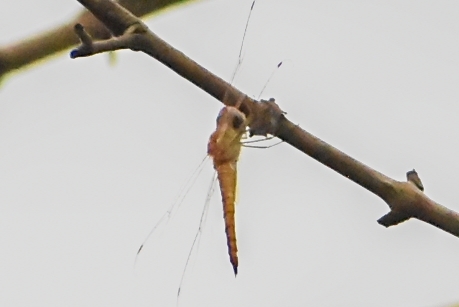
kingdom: Animalia
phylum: Arthropoda
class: Insecta
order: Odonata
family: Libellulidae
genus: Pantala
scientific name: Pantala flavescens
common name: Wandering glider
